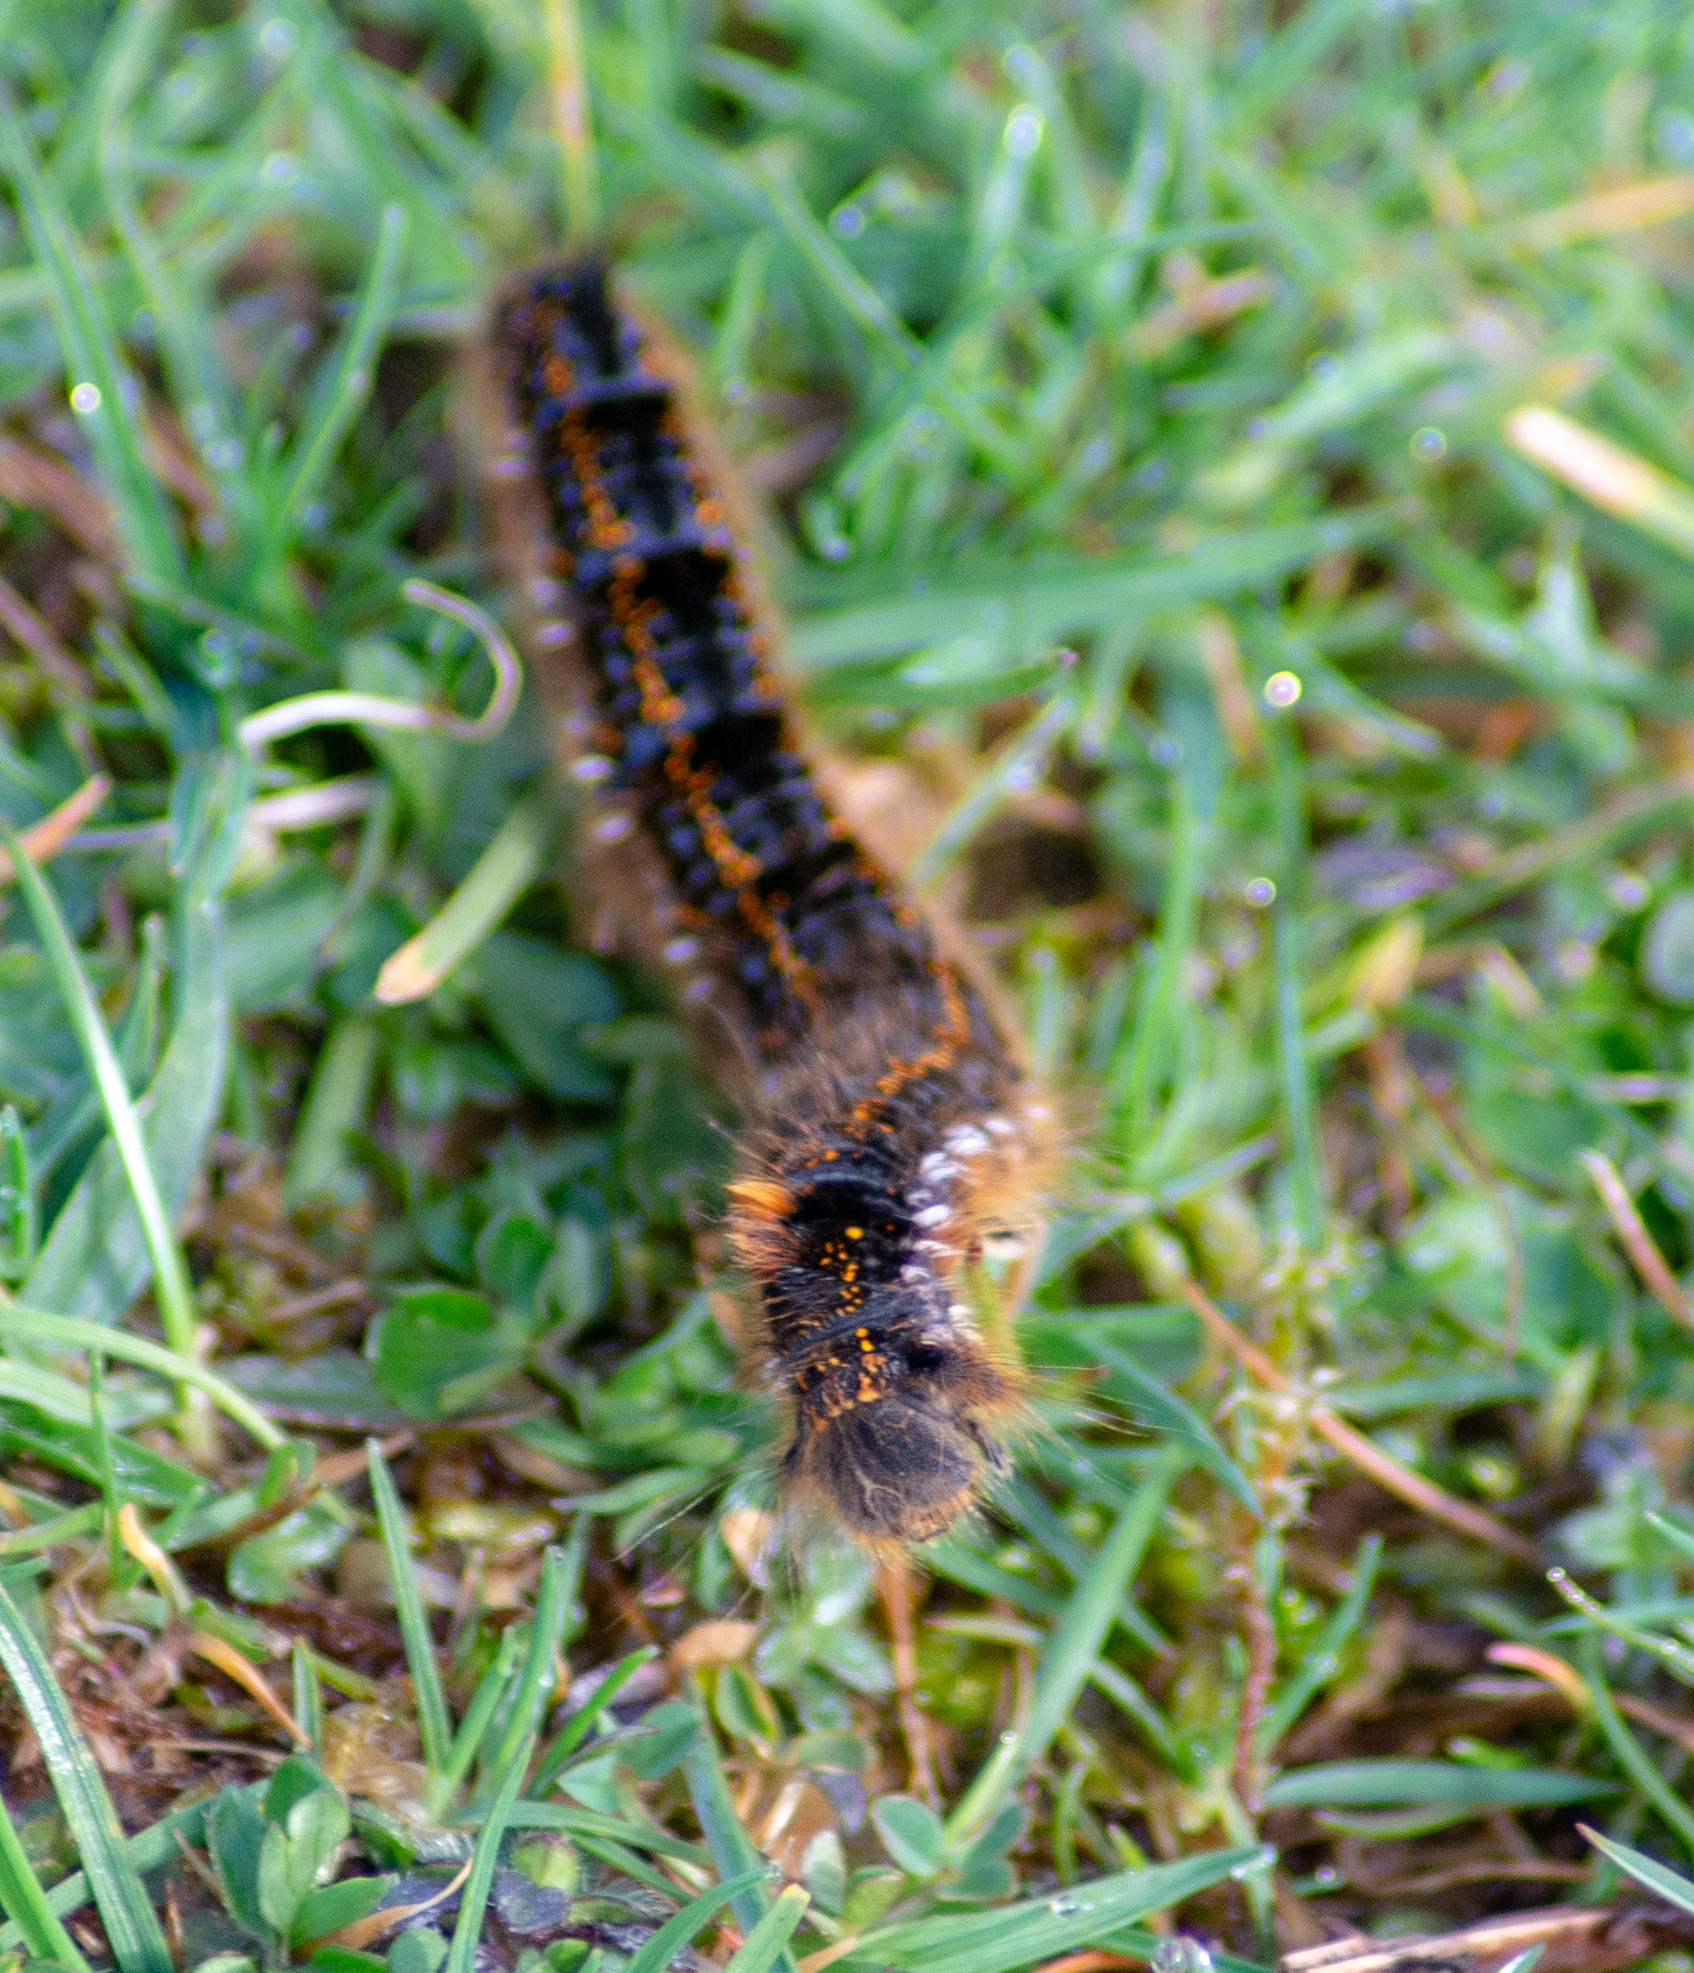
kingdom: Animalia
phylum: Arthropoda
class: Insecta
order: Lepidoptera
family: Lasiocampidae
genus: Euthrix
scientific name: Euthrix potatoria
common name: Drinker
